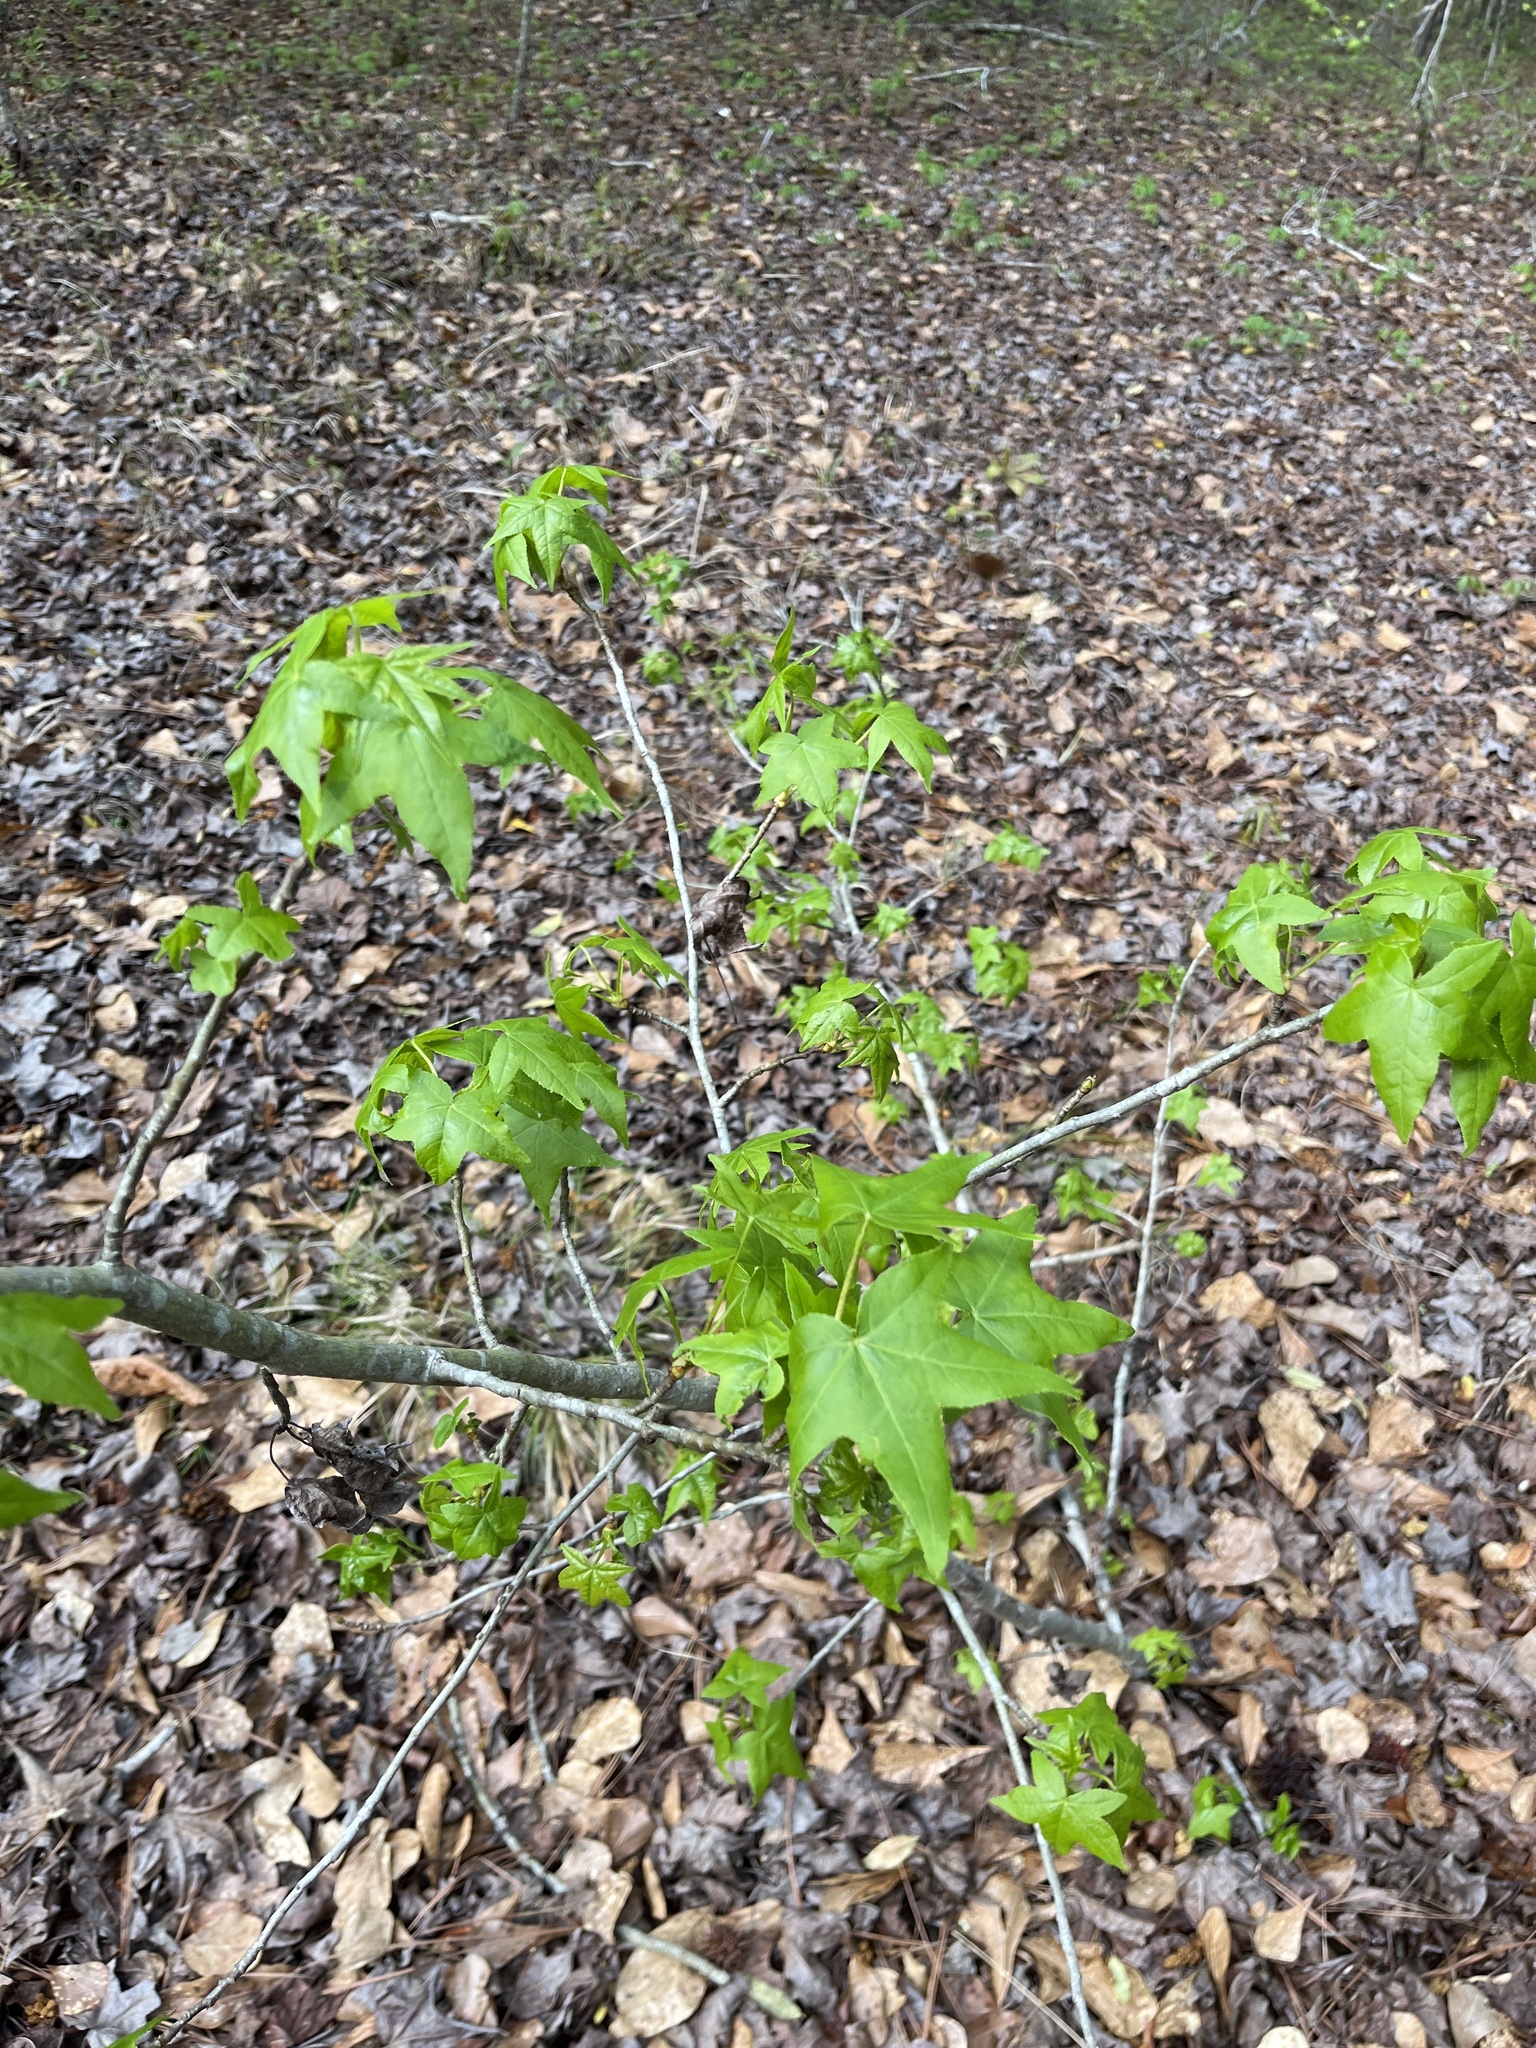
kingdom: Plantae
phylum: Tracheophyta
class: Magnoliopsida
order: Saxifragales
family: Altingiaceae
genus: Liquidambar
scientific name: Liquidambar styraciflua
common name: Sweet gum
